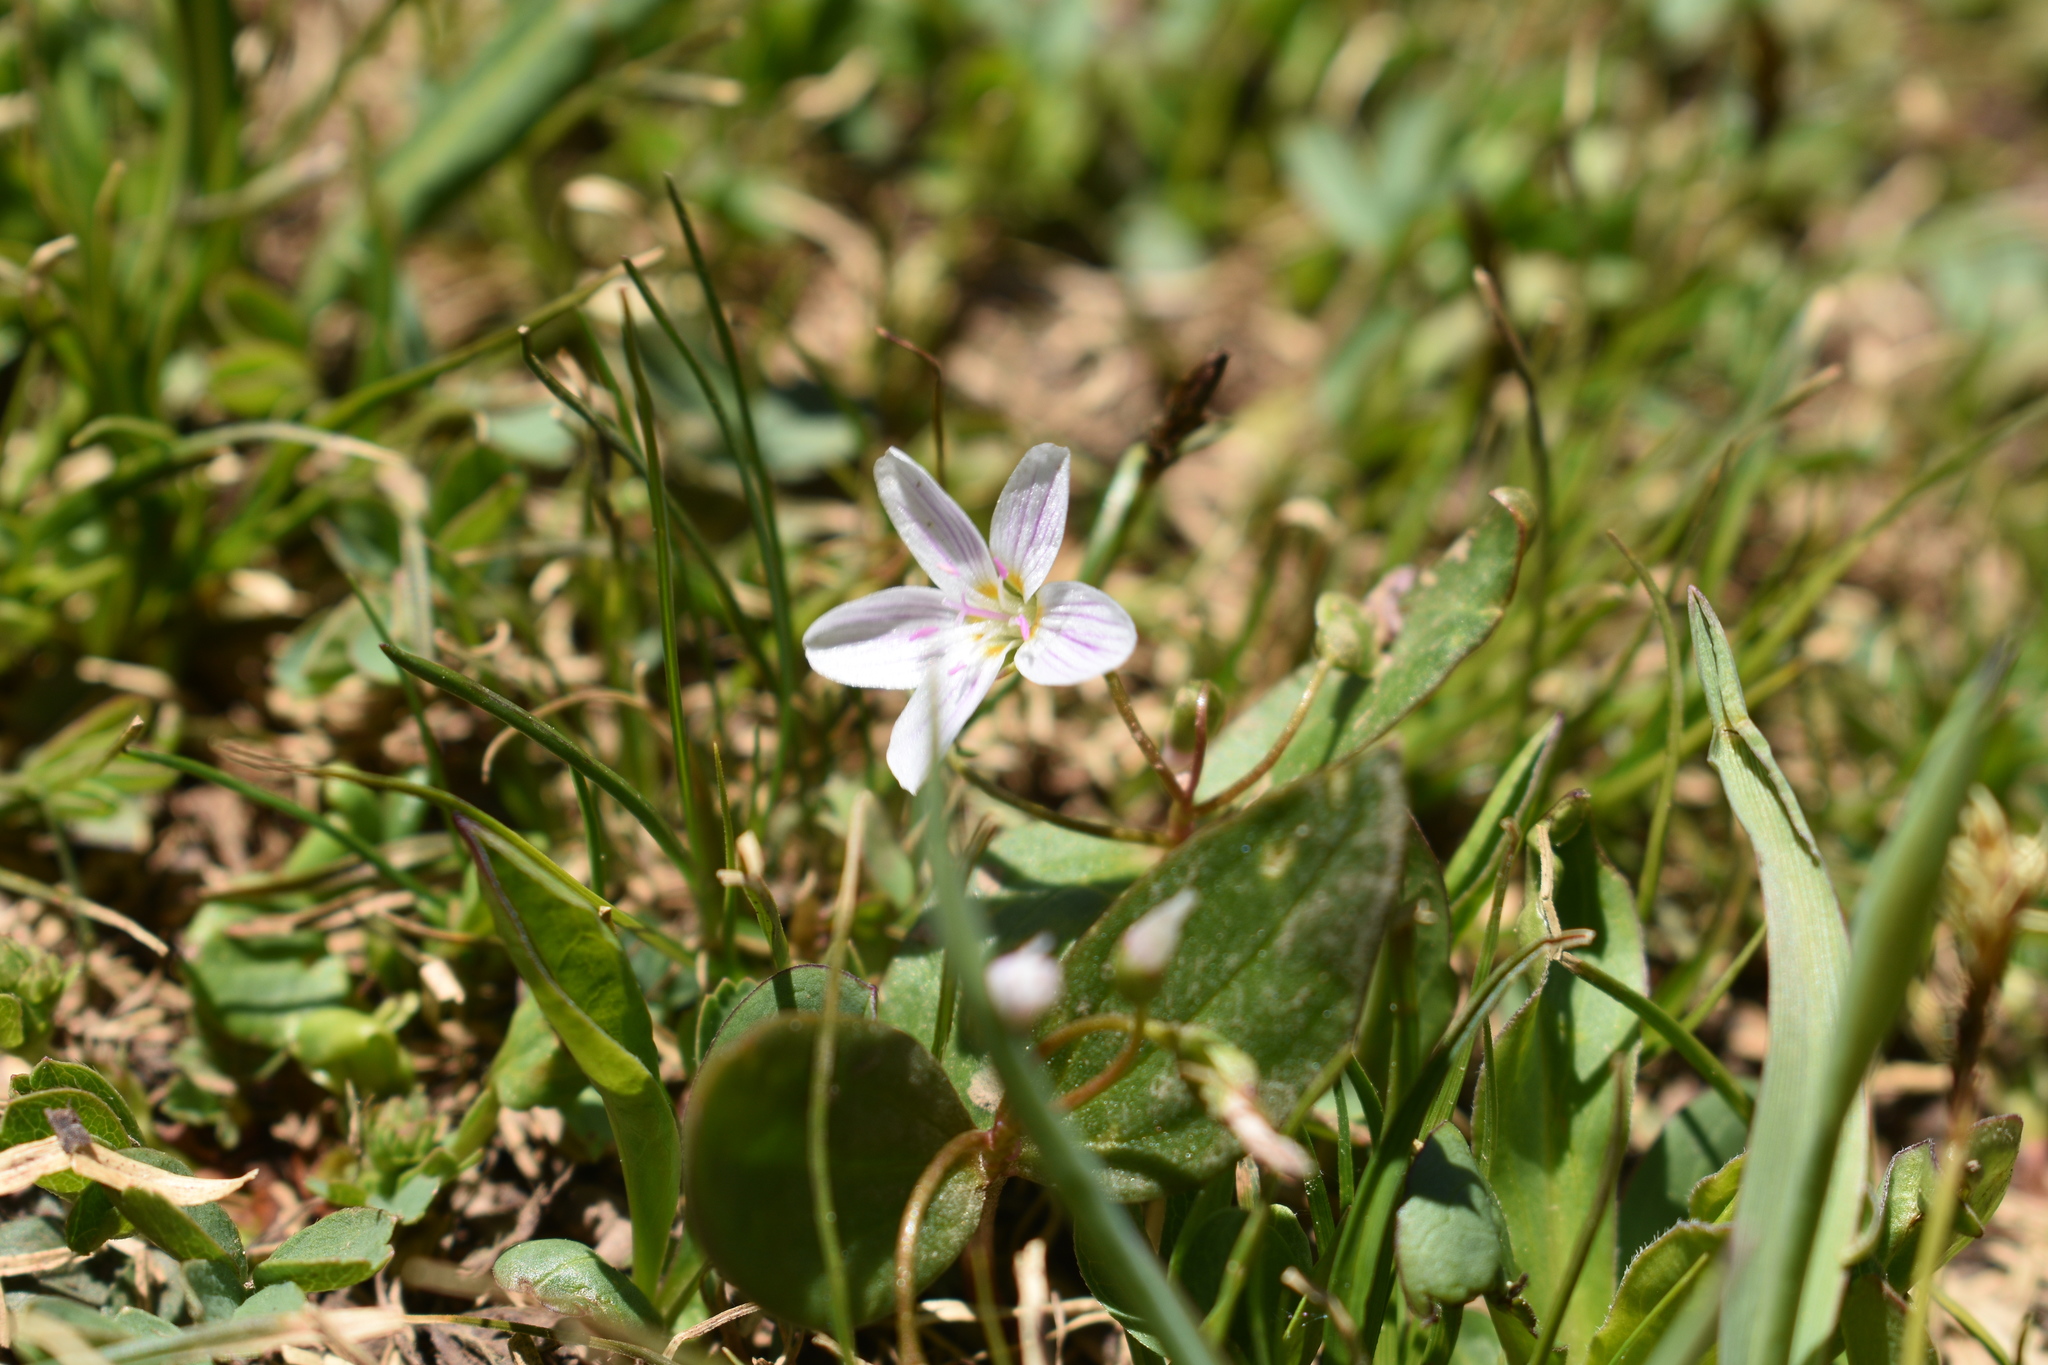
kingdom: Plantae
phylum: Tracheophyta
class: Magnoliopsida
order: Caryophyllales
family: Montiaceae
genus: Claytonia
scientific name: Claytonia lanceolata
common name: Western spring-beauty
